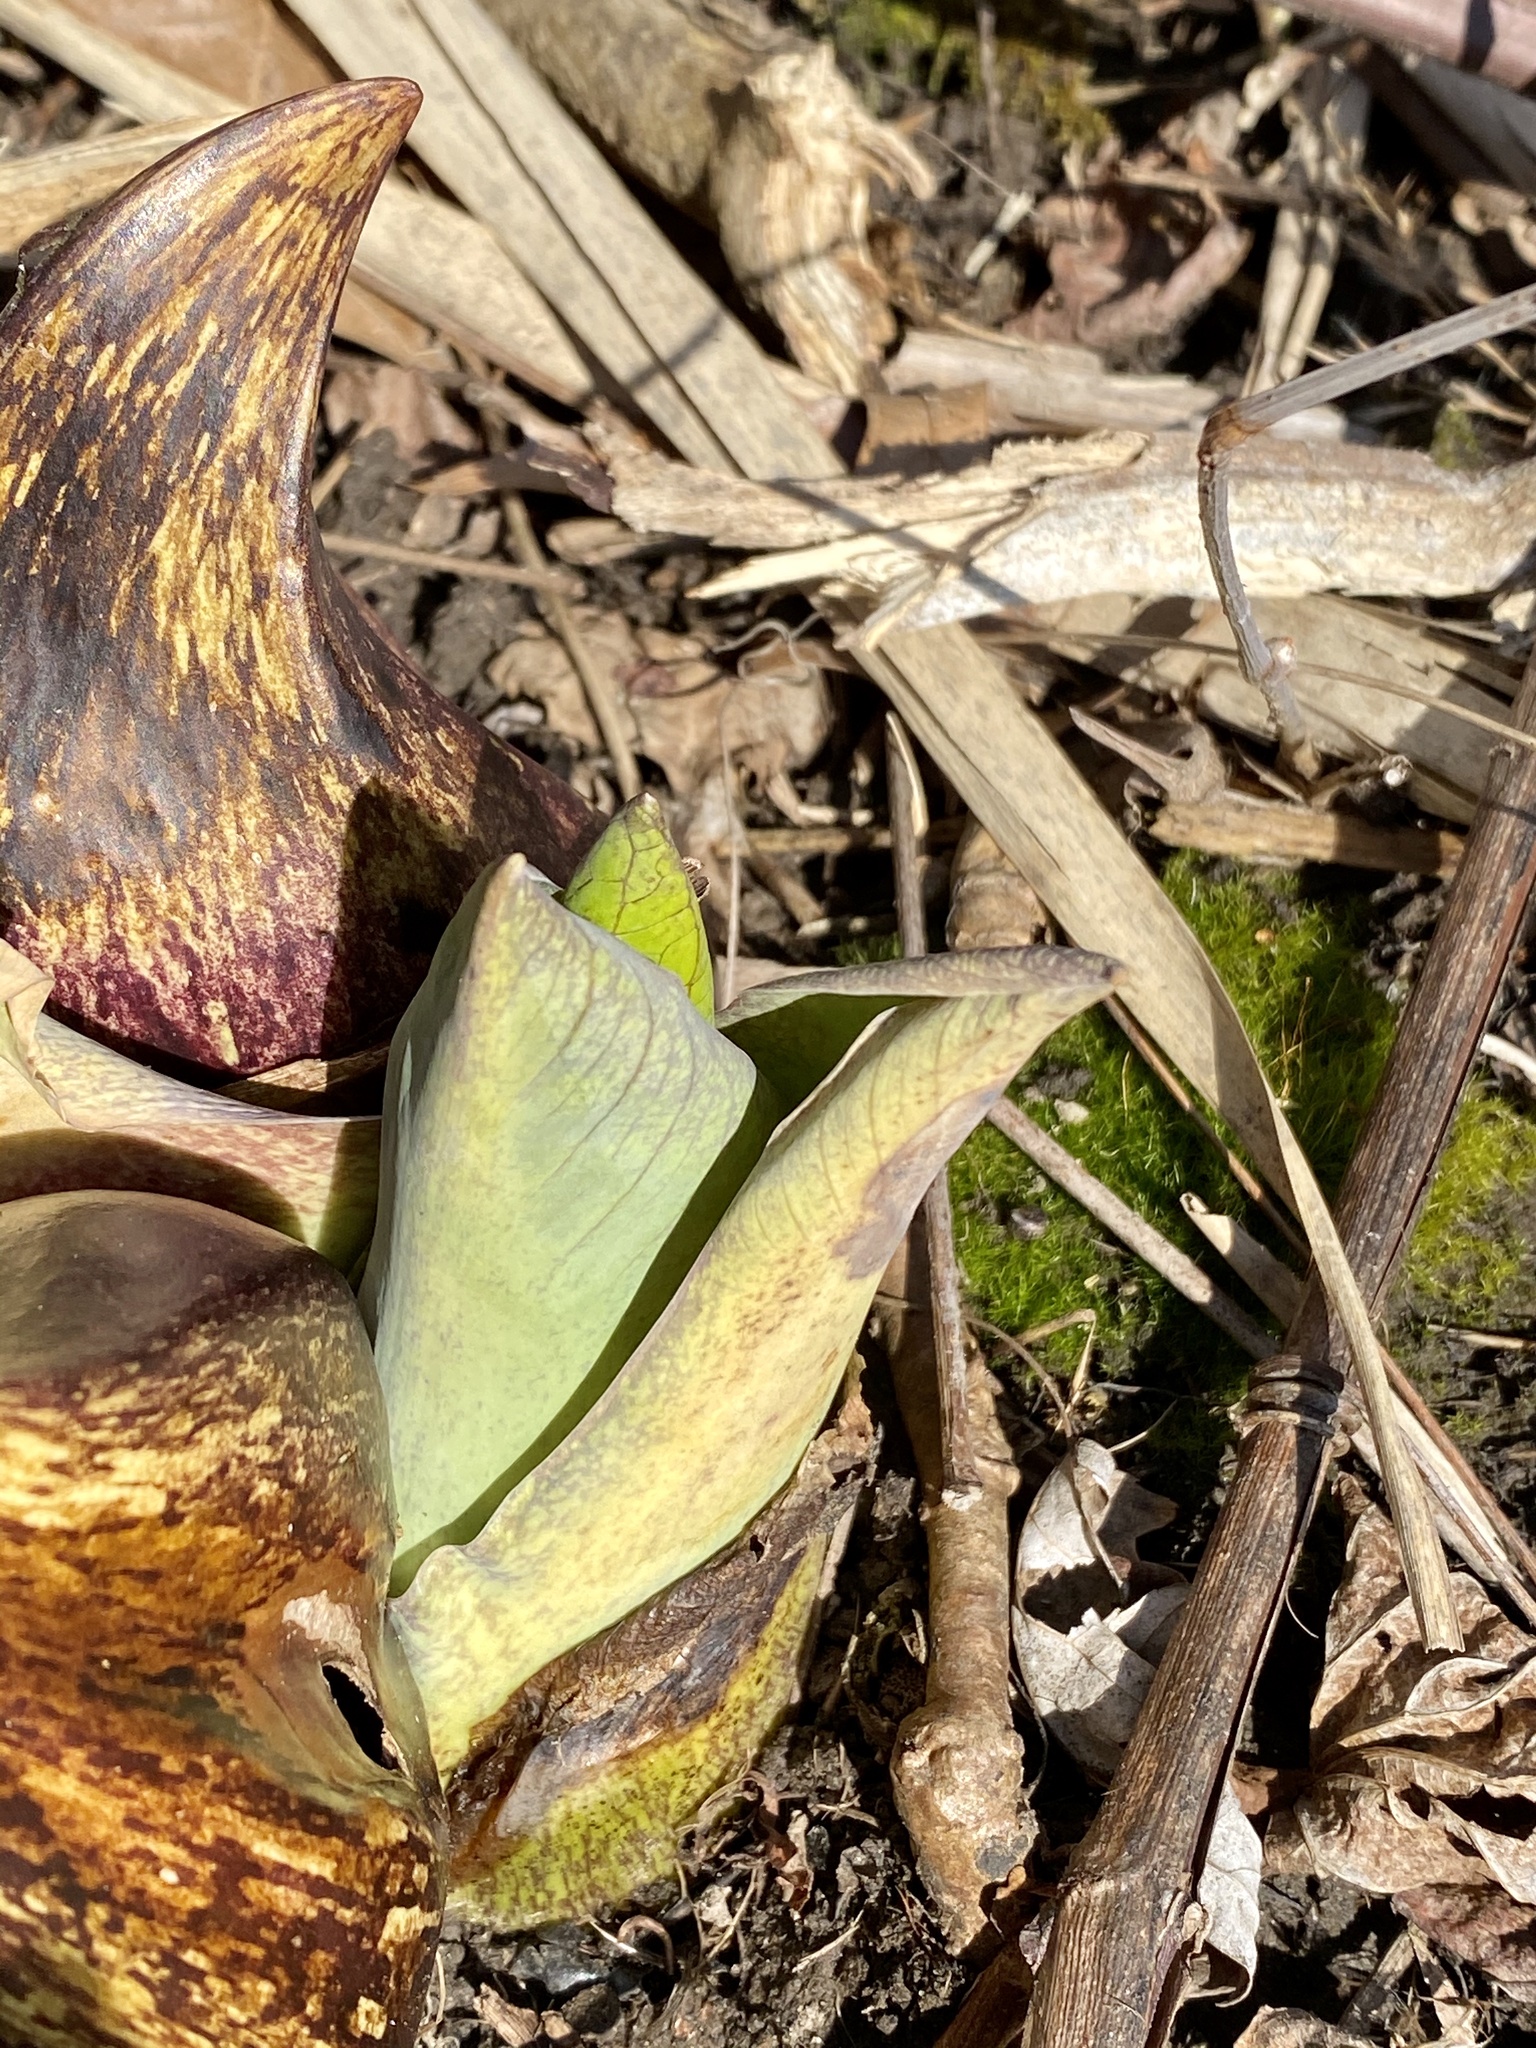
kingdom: Plantae
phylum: Tracheophyta
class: Liliopsida
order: Alismatales
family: Araceae
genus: Symplocarpus
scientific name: Symplocarpus foetidus
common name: Eastern skunk cabbage
